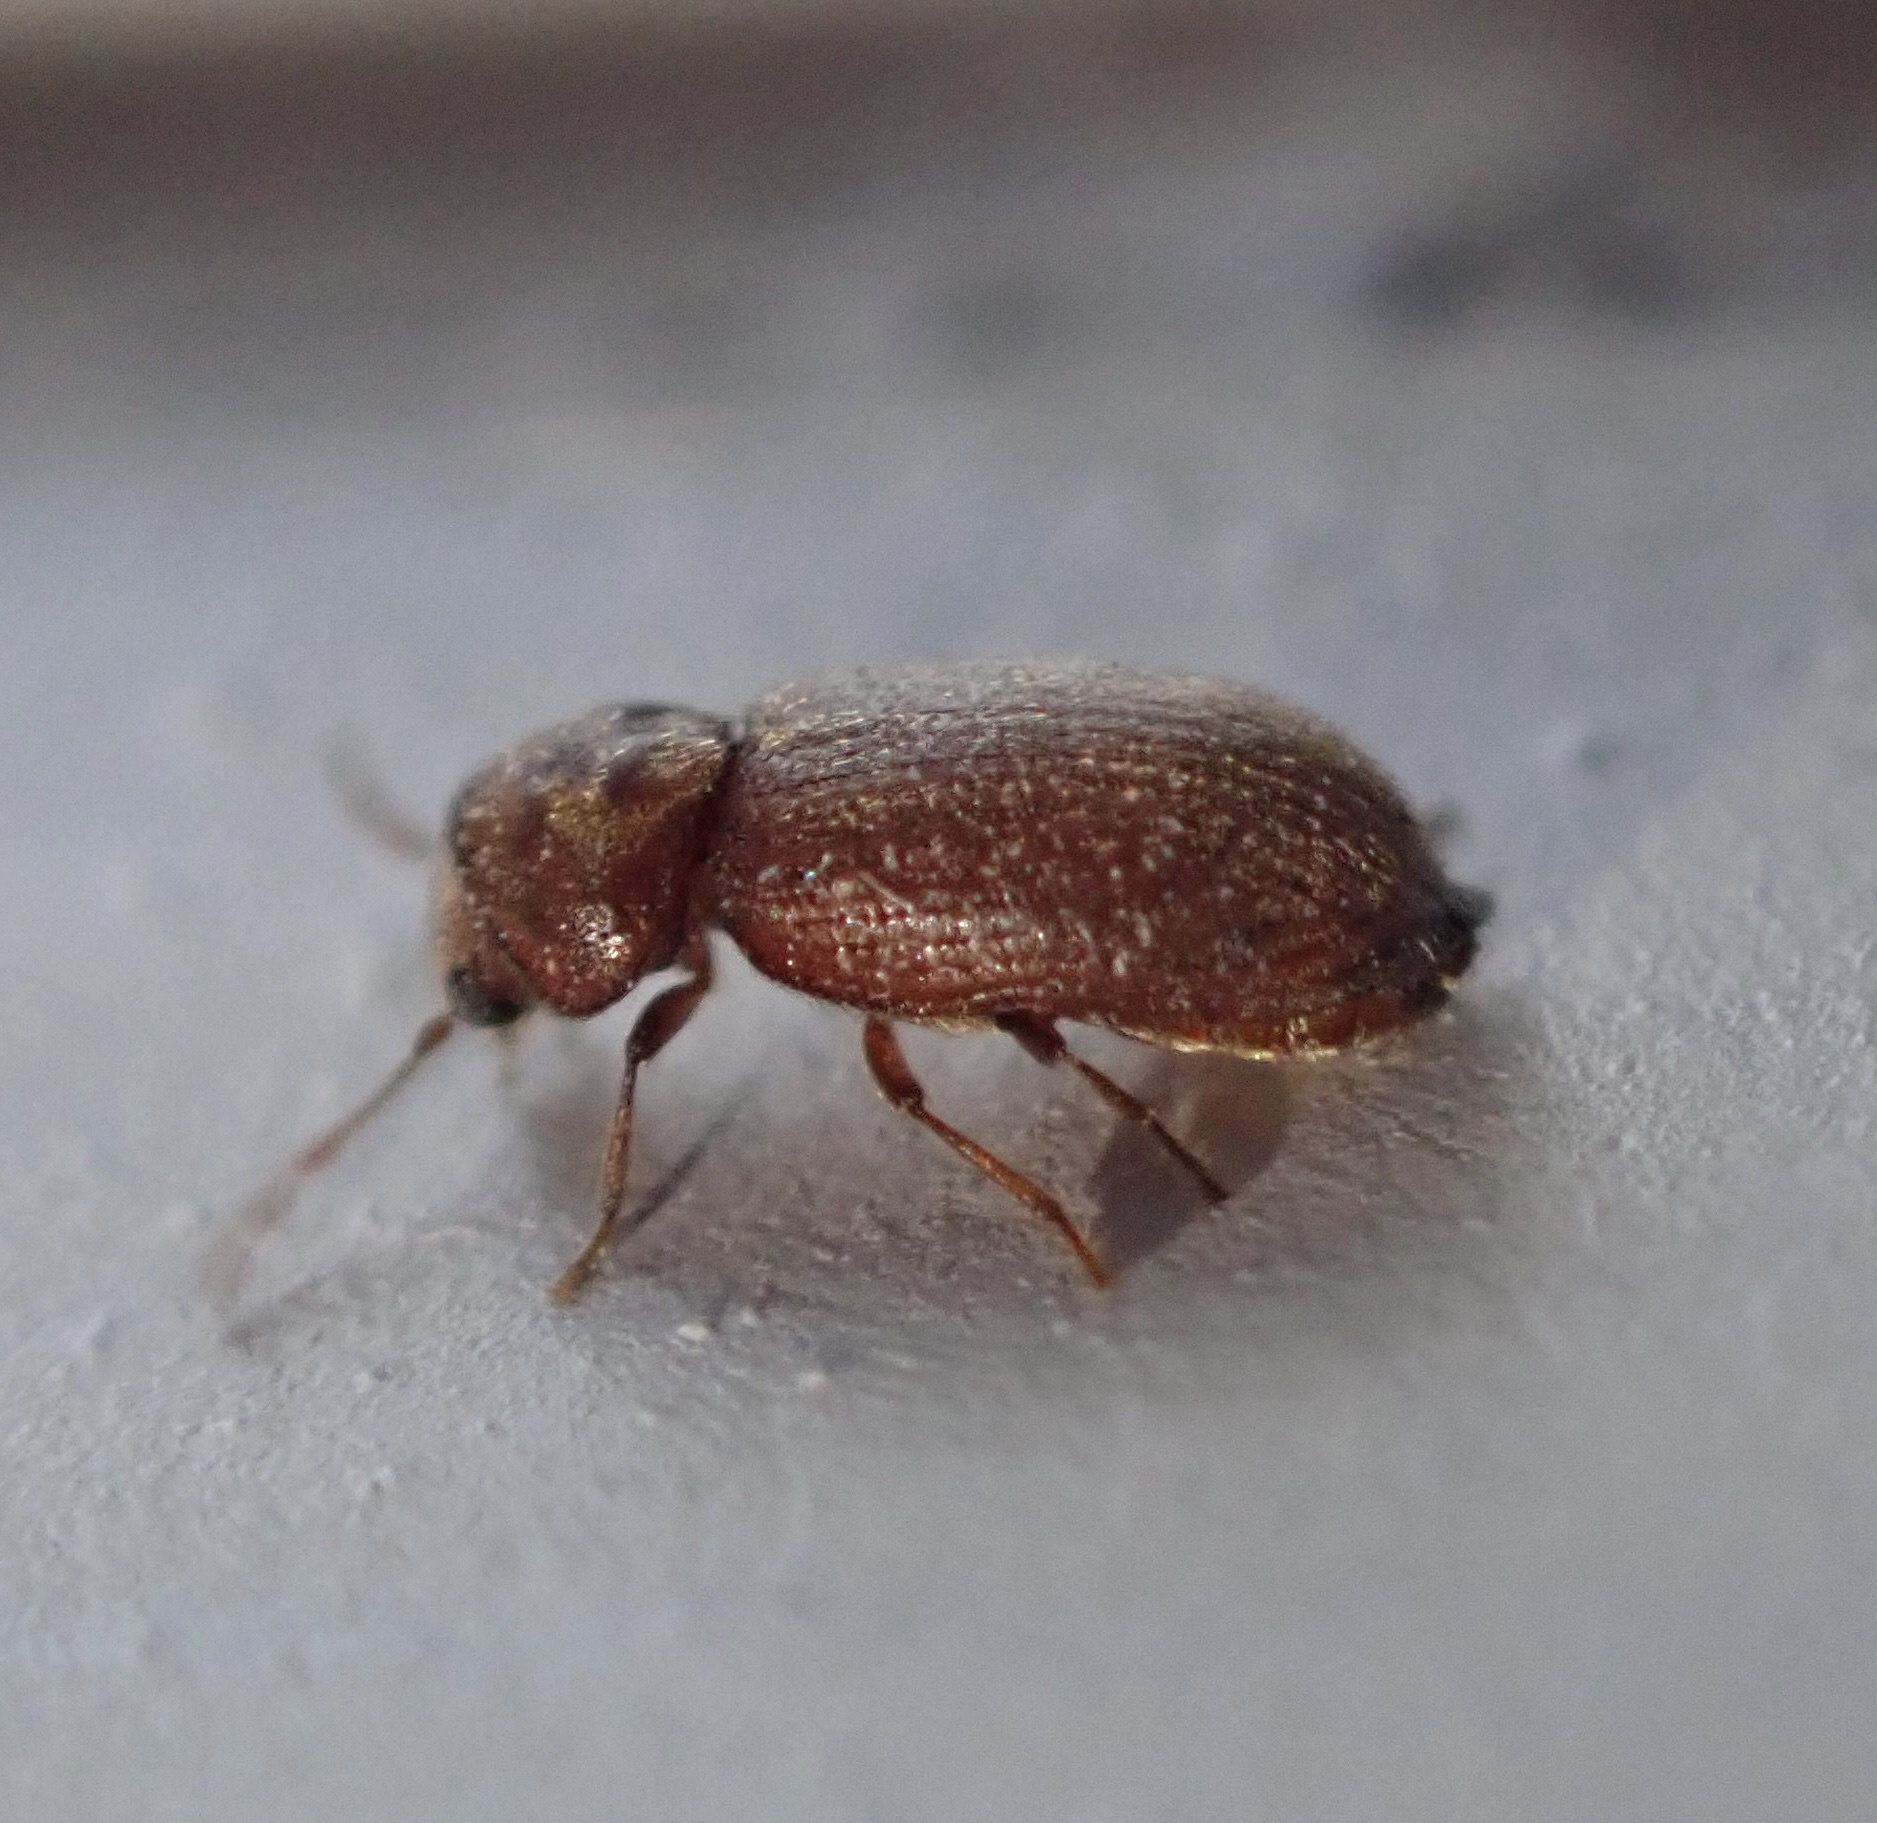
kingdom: Animalia
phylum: Arthropoda
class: Insecta
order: Coleoptera
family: Anobiidae
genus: Stegobium
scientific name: Stegobium paniceum
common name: Drugstore beetle
